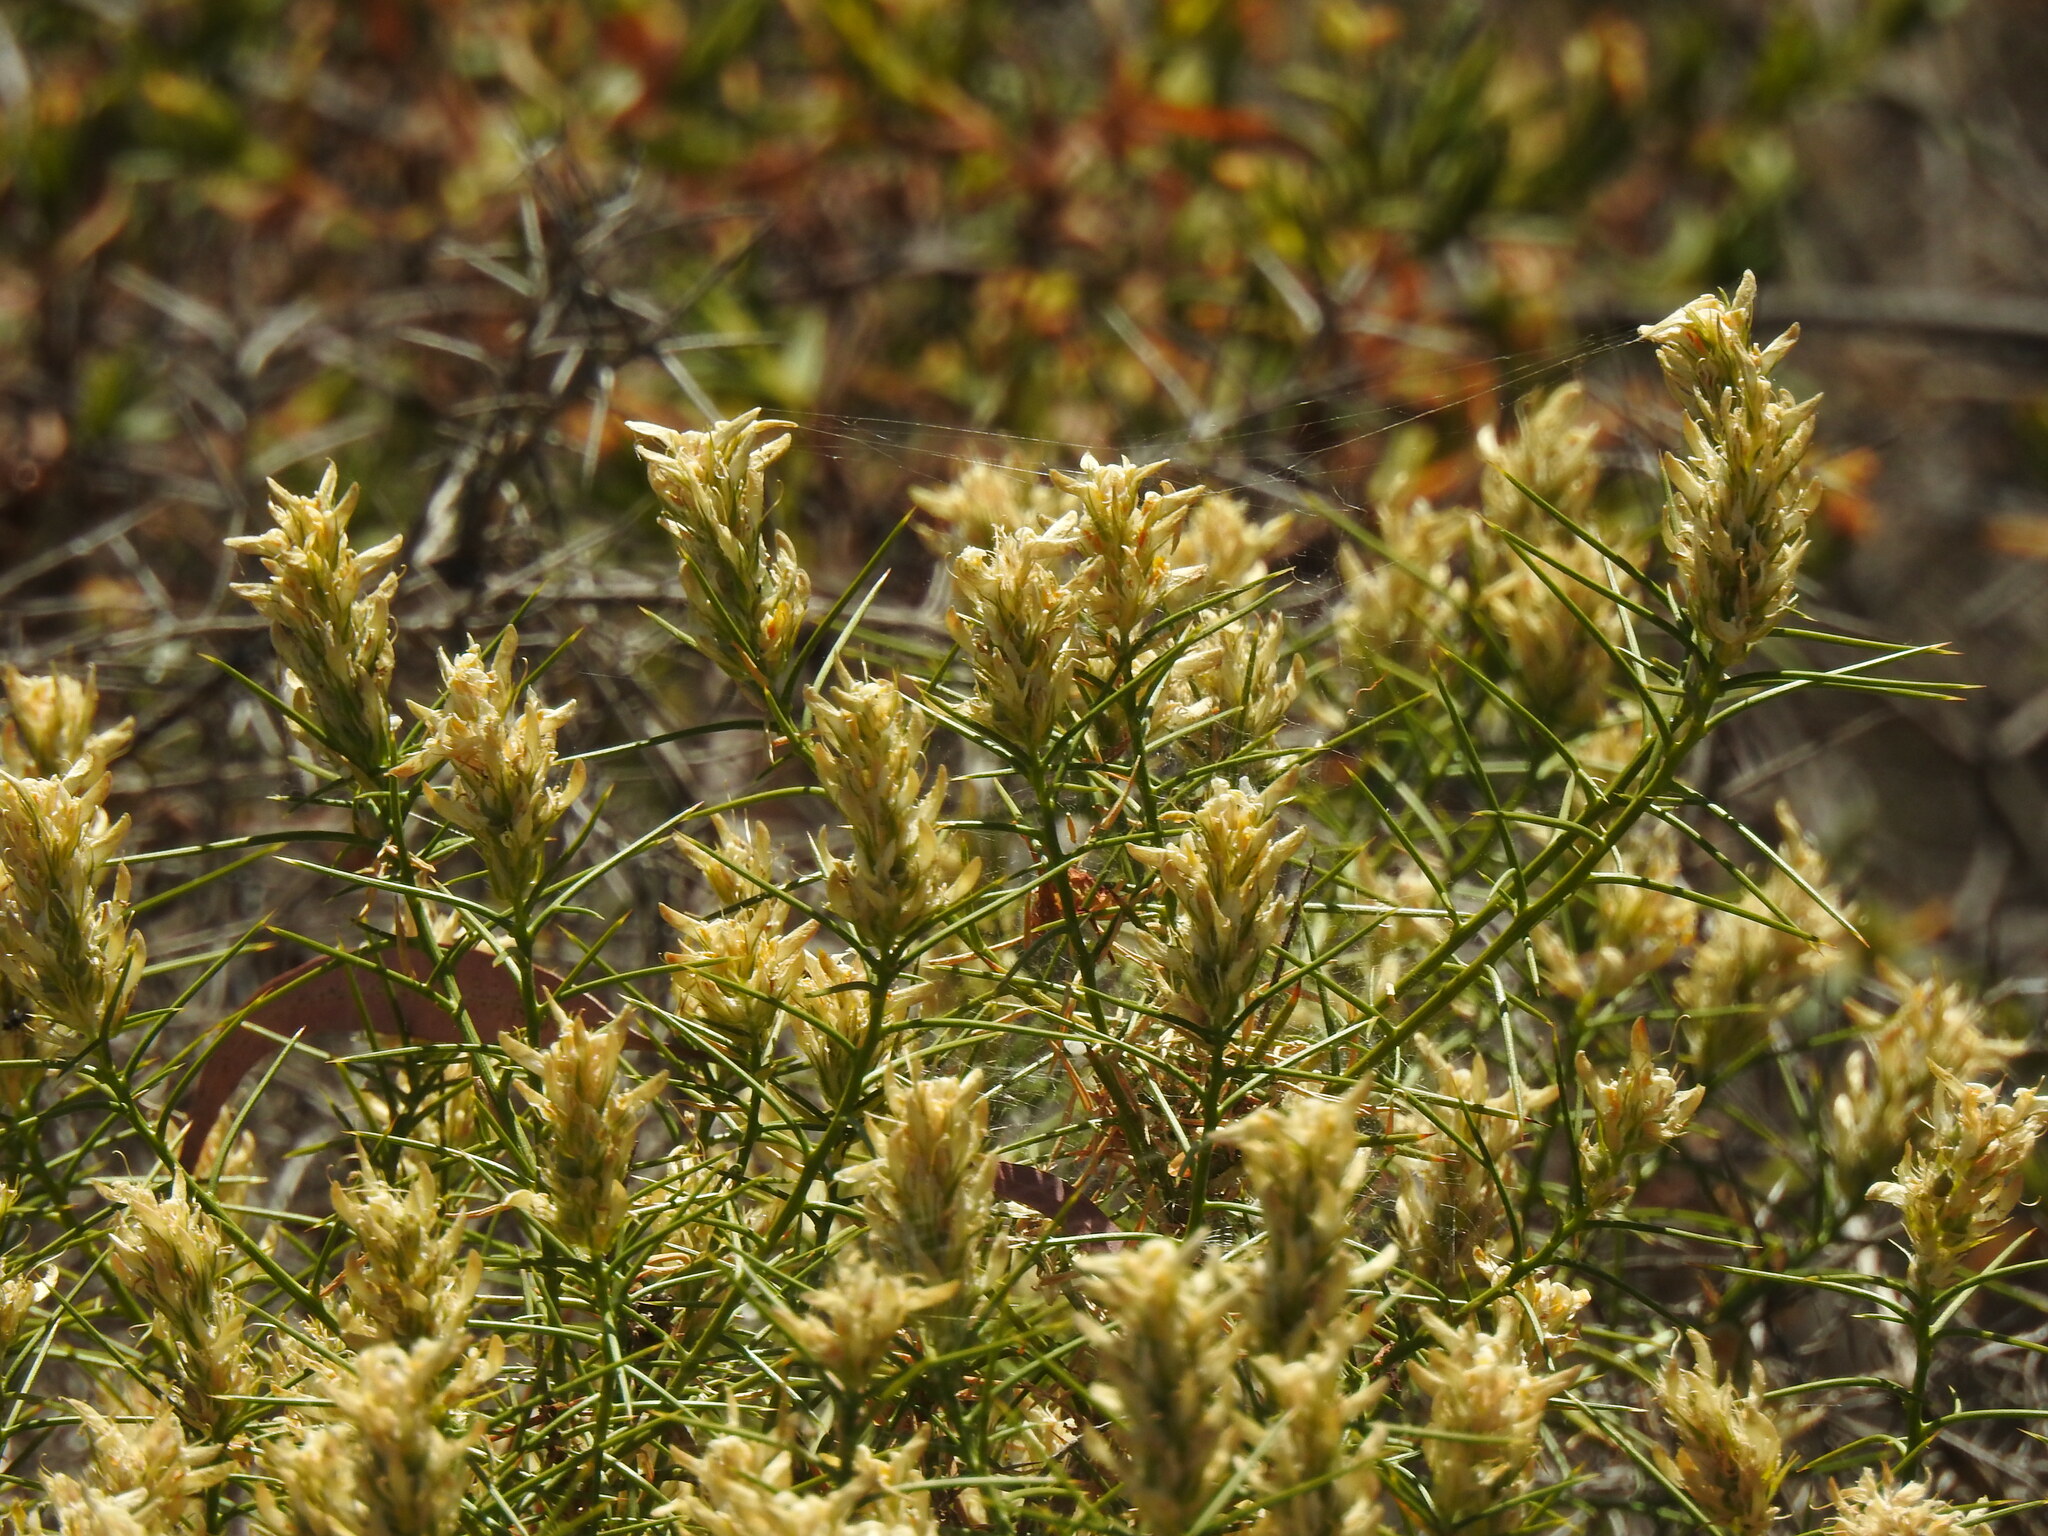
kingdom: Plantae
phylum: Tracheophyta
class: Magnoliopsida
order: Fabales
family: Fabaceae
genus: Genista
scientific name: Genista hirsuta
